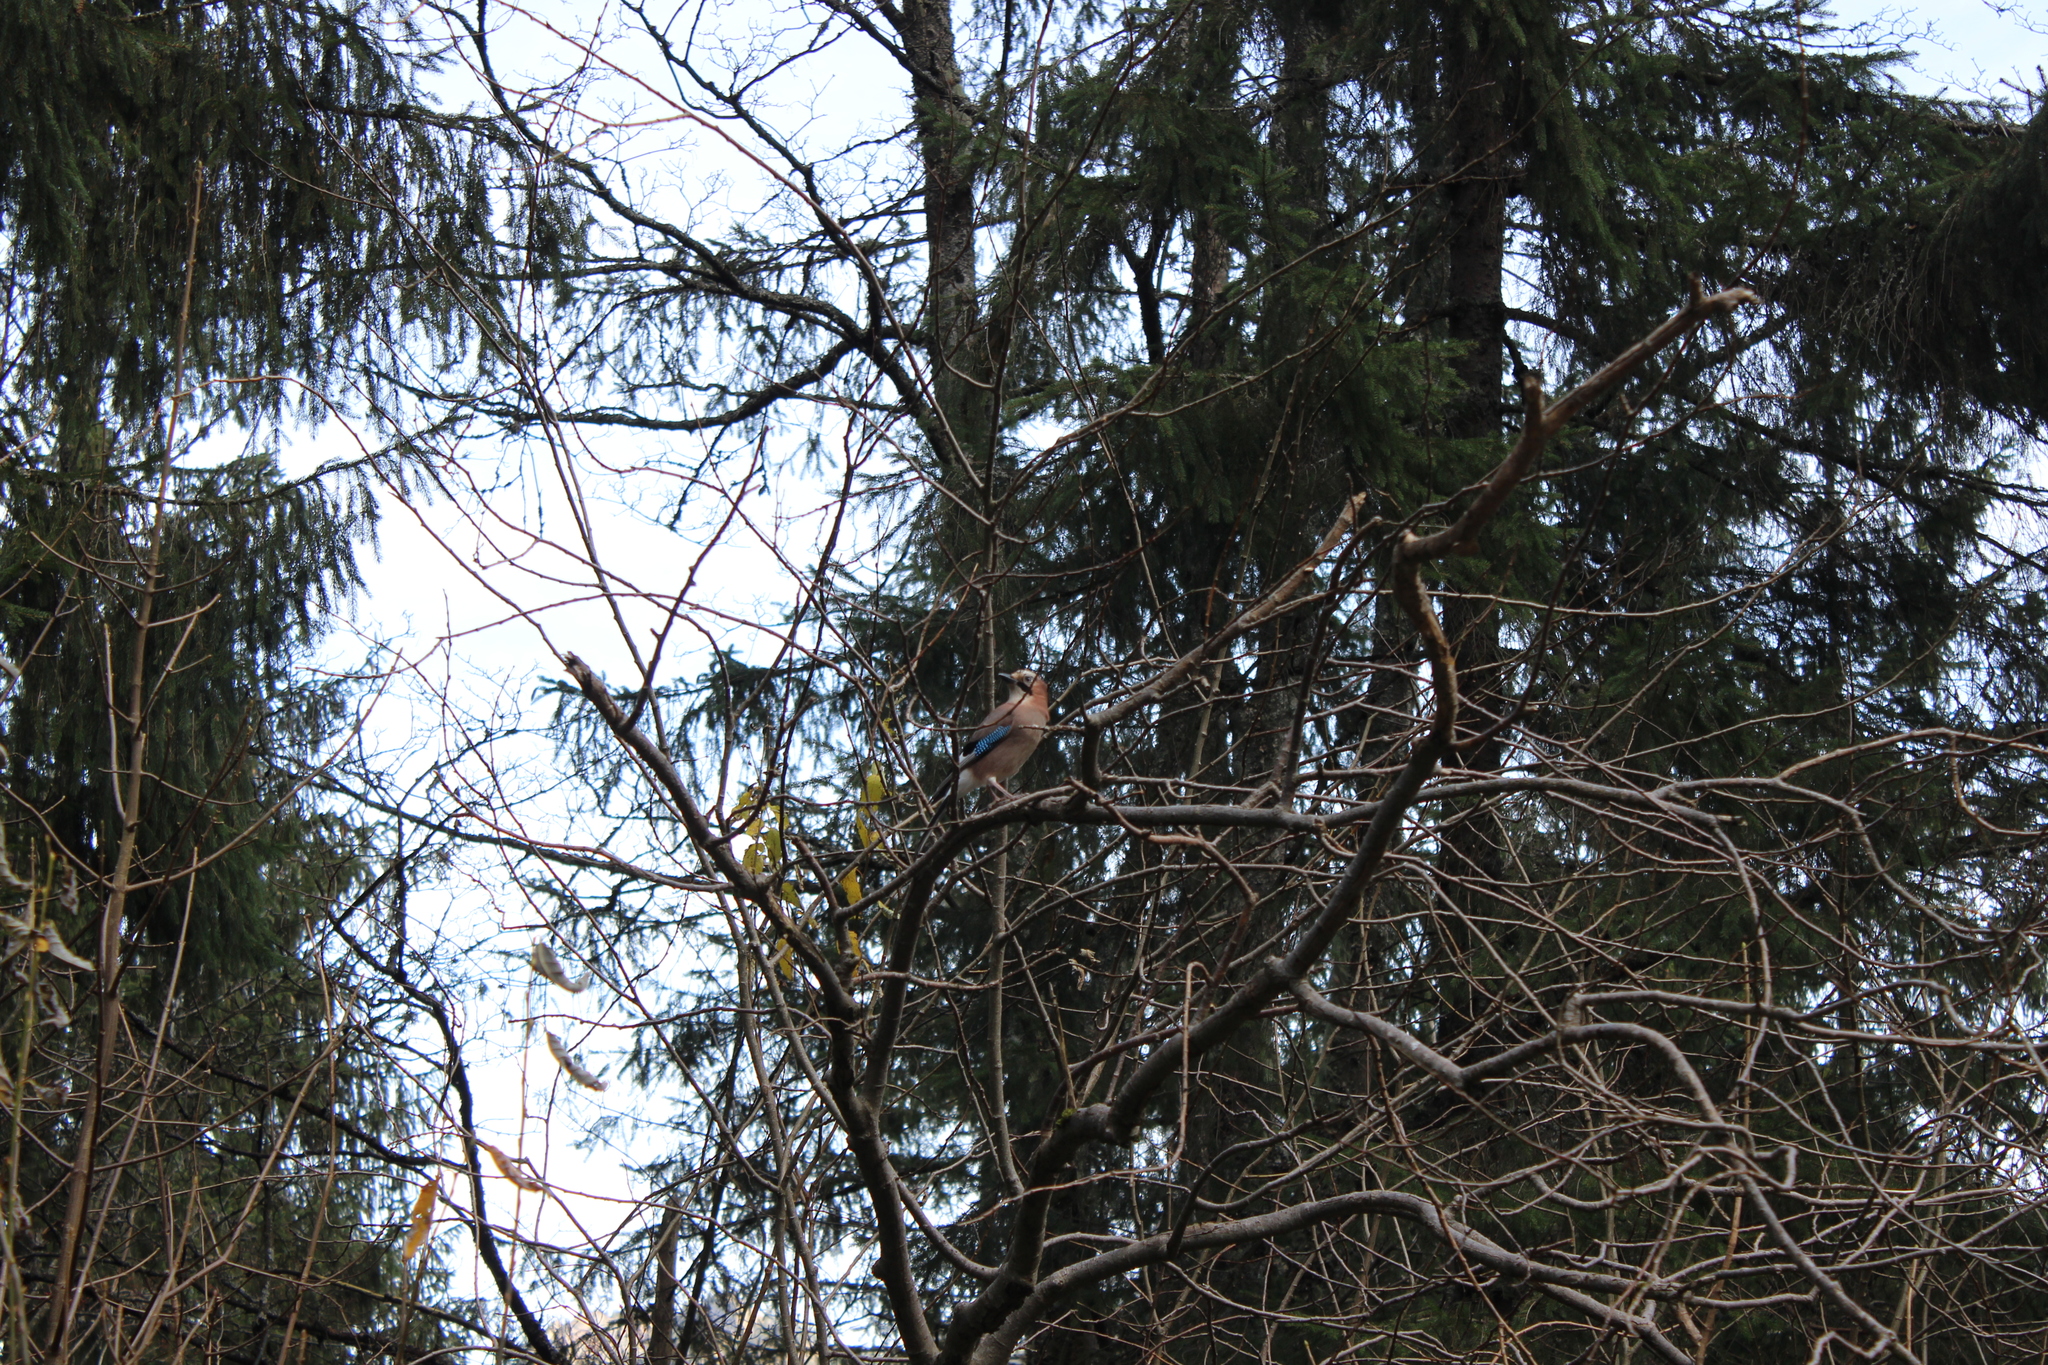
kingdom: Animalia
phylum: Chordata
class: Aves
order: Passeriformes
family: Corvidae
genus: Garrulus
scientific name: Garrulus glandarius
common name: Eurasian jay
